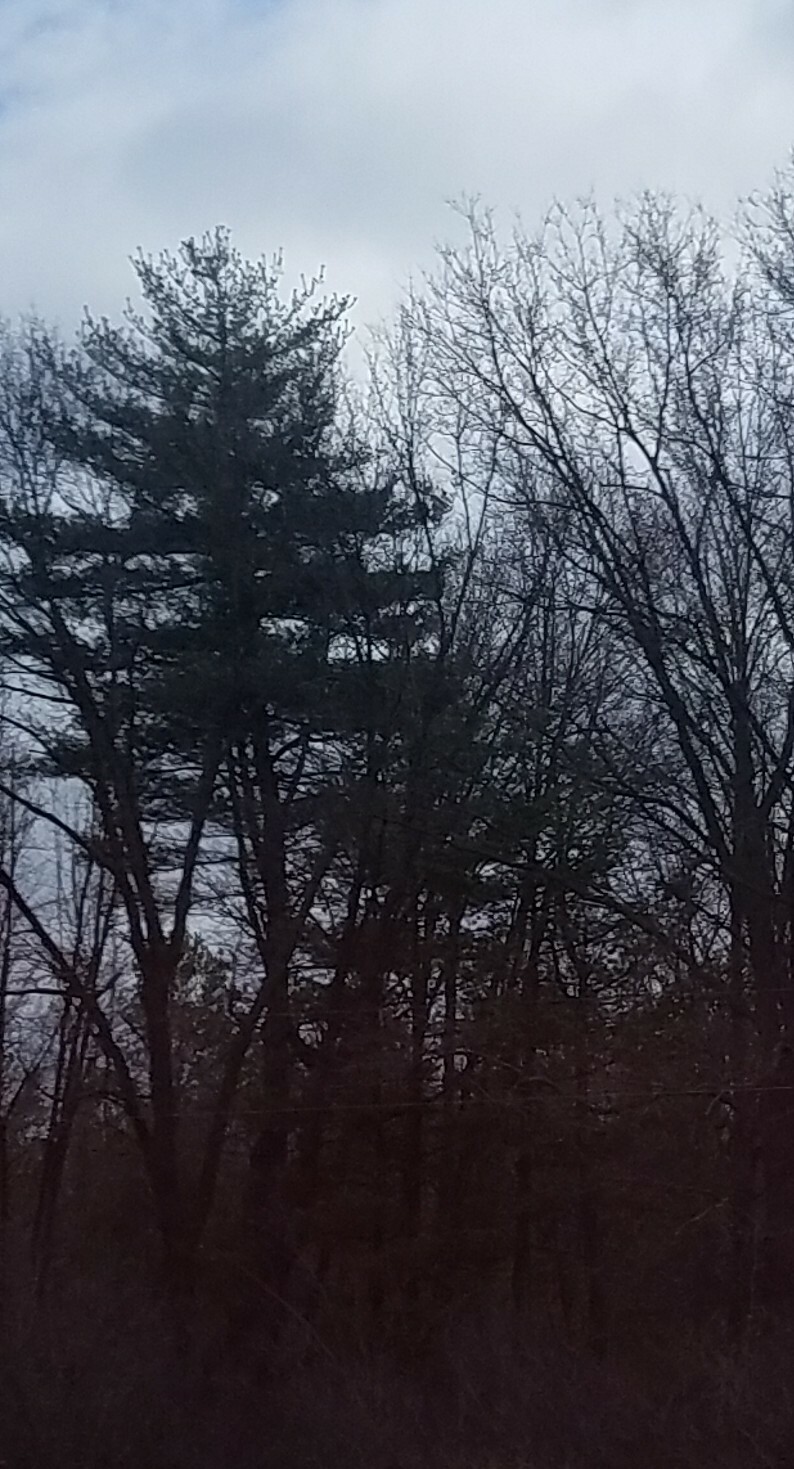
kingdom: Plantae
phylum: Tracheophyta
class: Pinopsida
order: Pinales
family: Pinaceae
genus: Pinus
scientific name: Pinus strobus
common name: Weymouth pine
